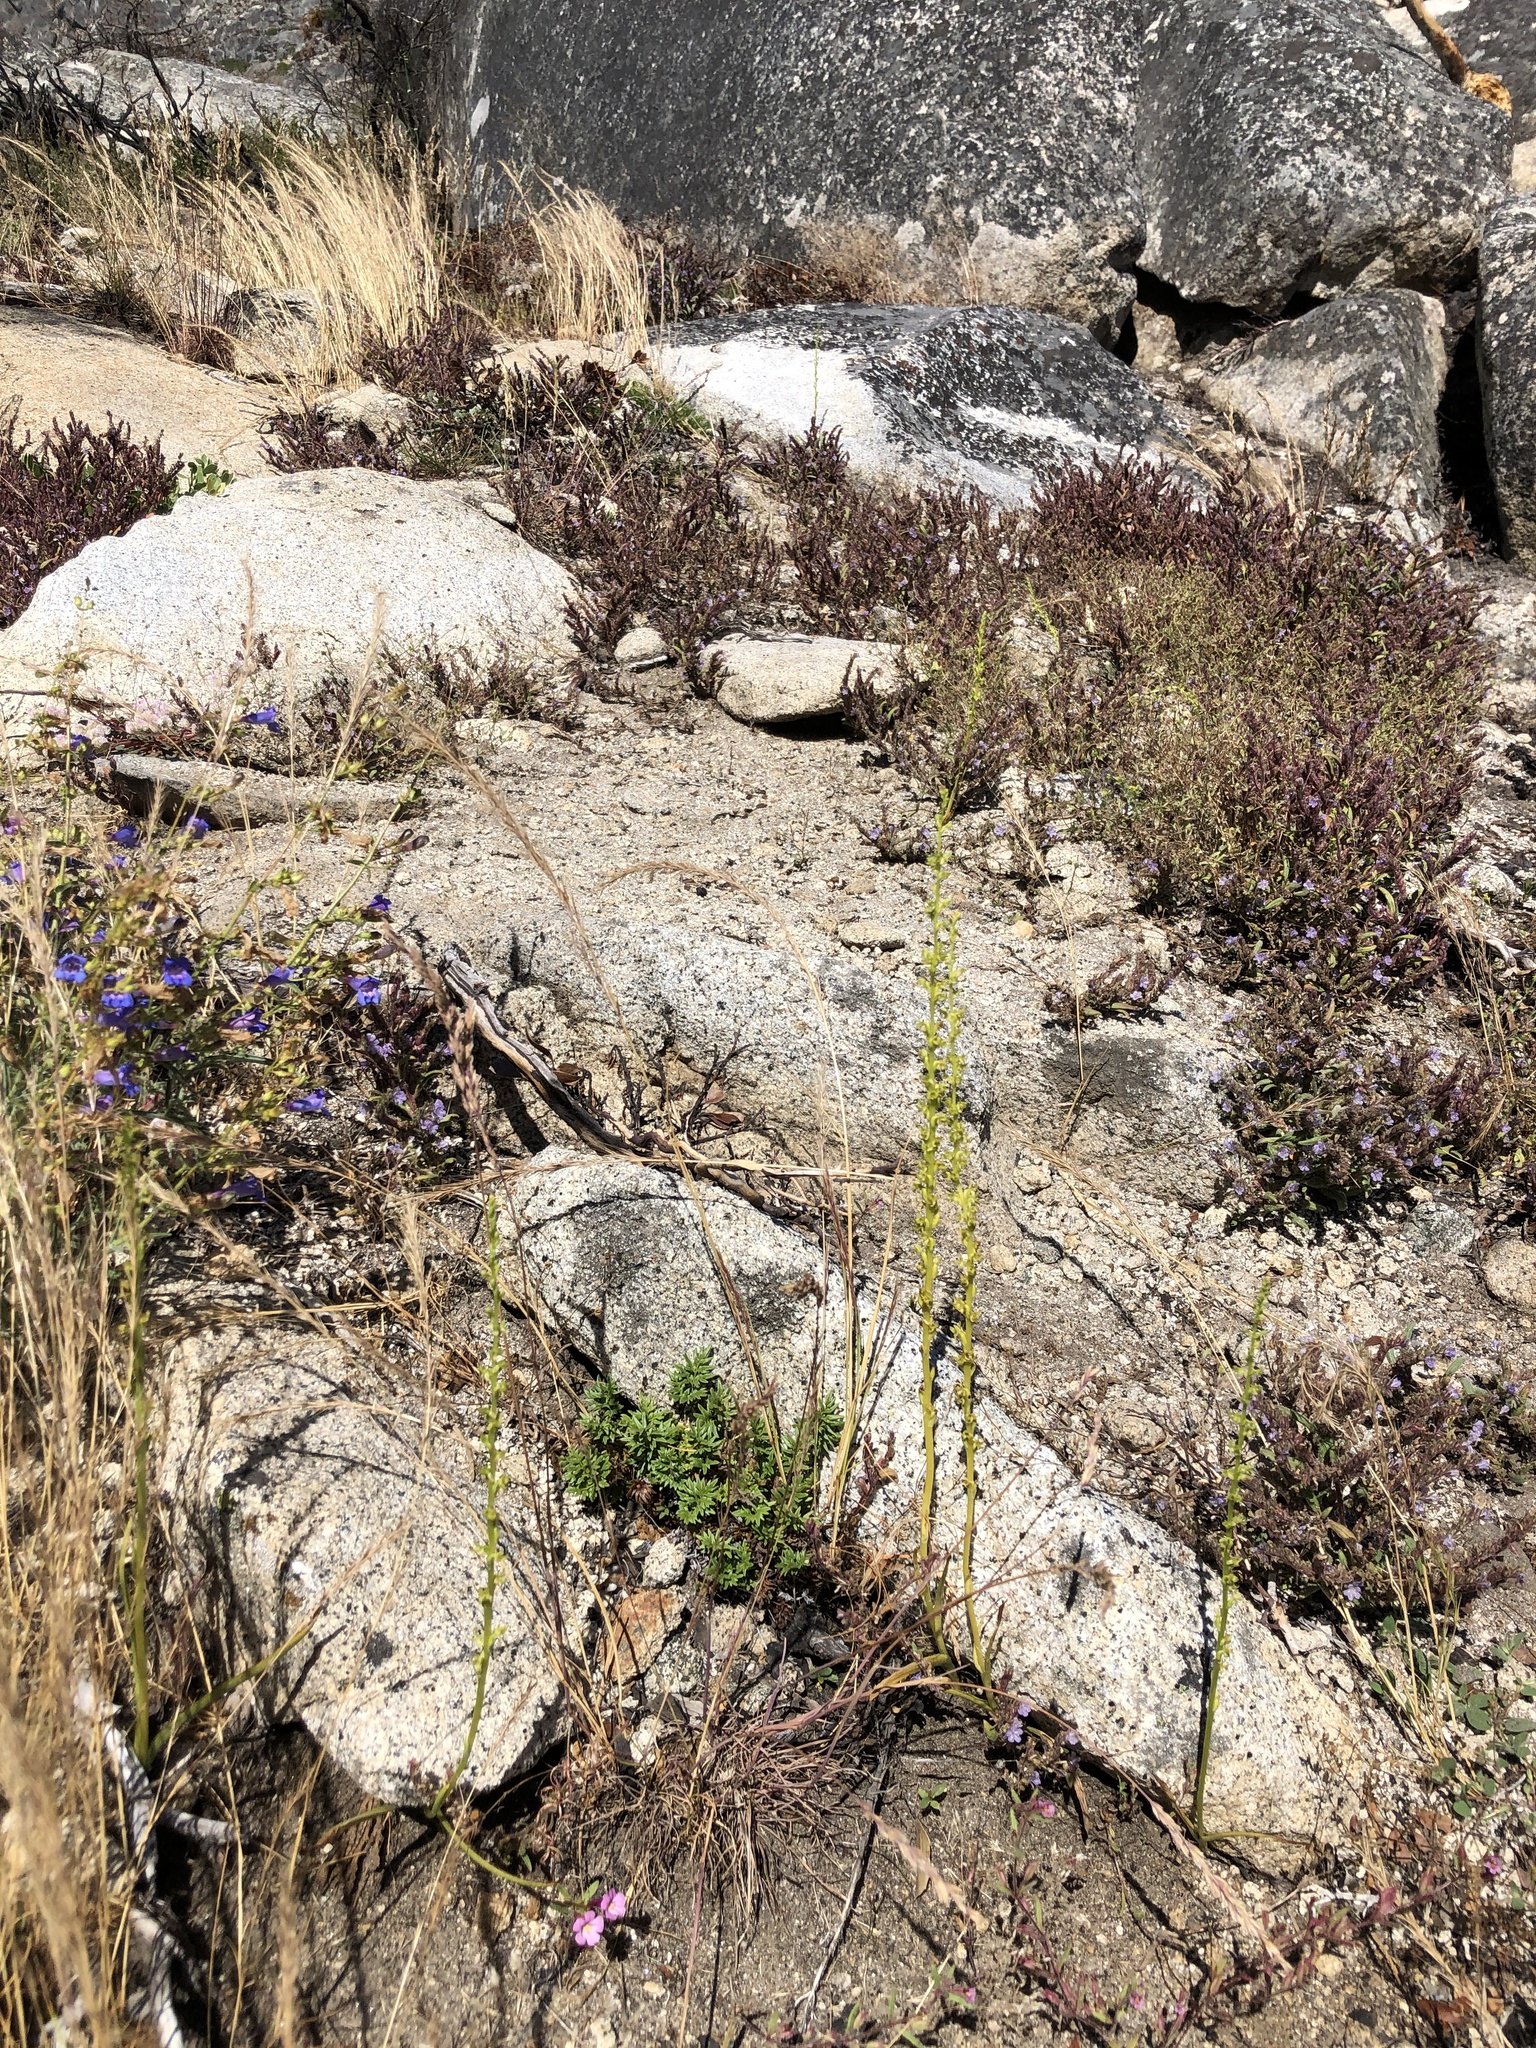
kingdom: Plantae
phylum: Tracheophyta
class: Liliopsida
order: Asparagales
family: Orchidaceae
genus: Platanthera
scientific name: Platanthera colemanii
